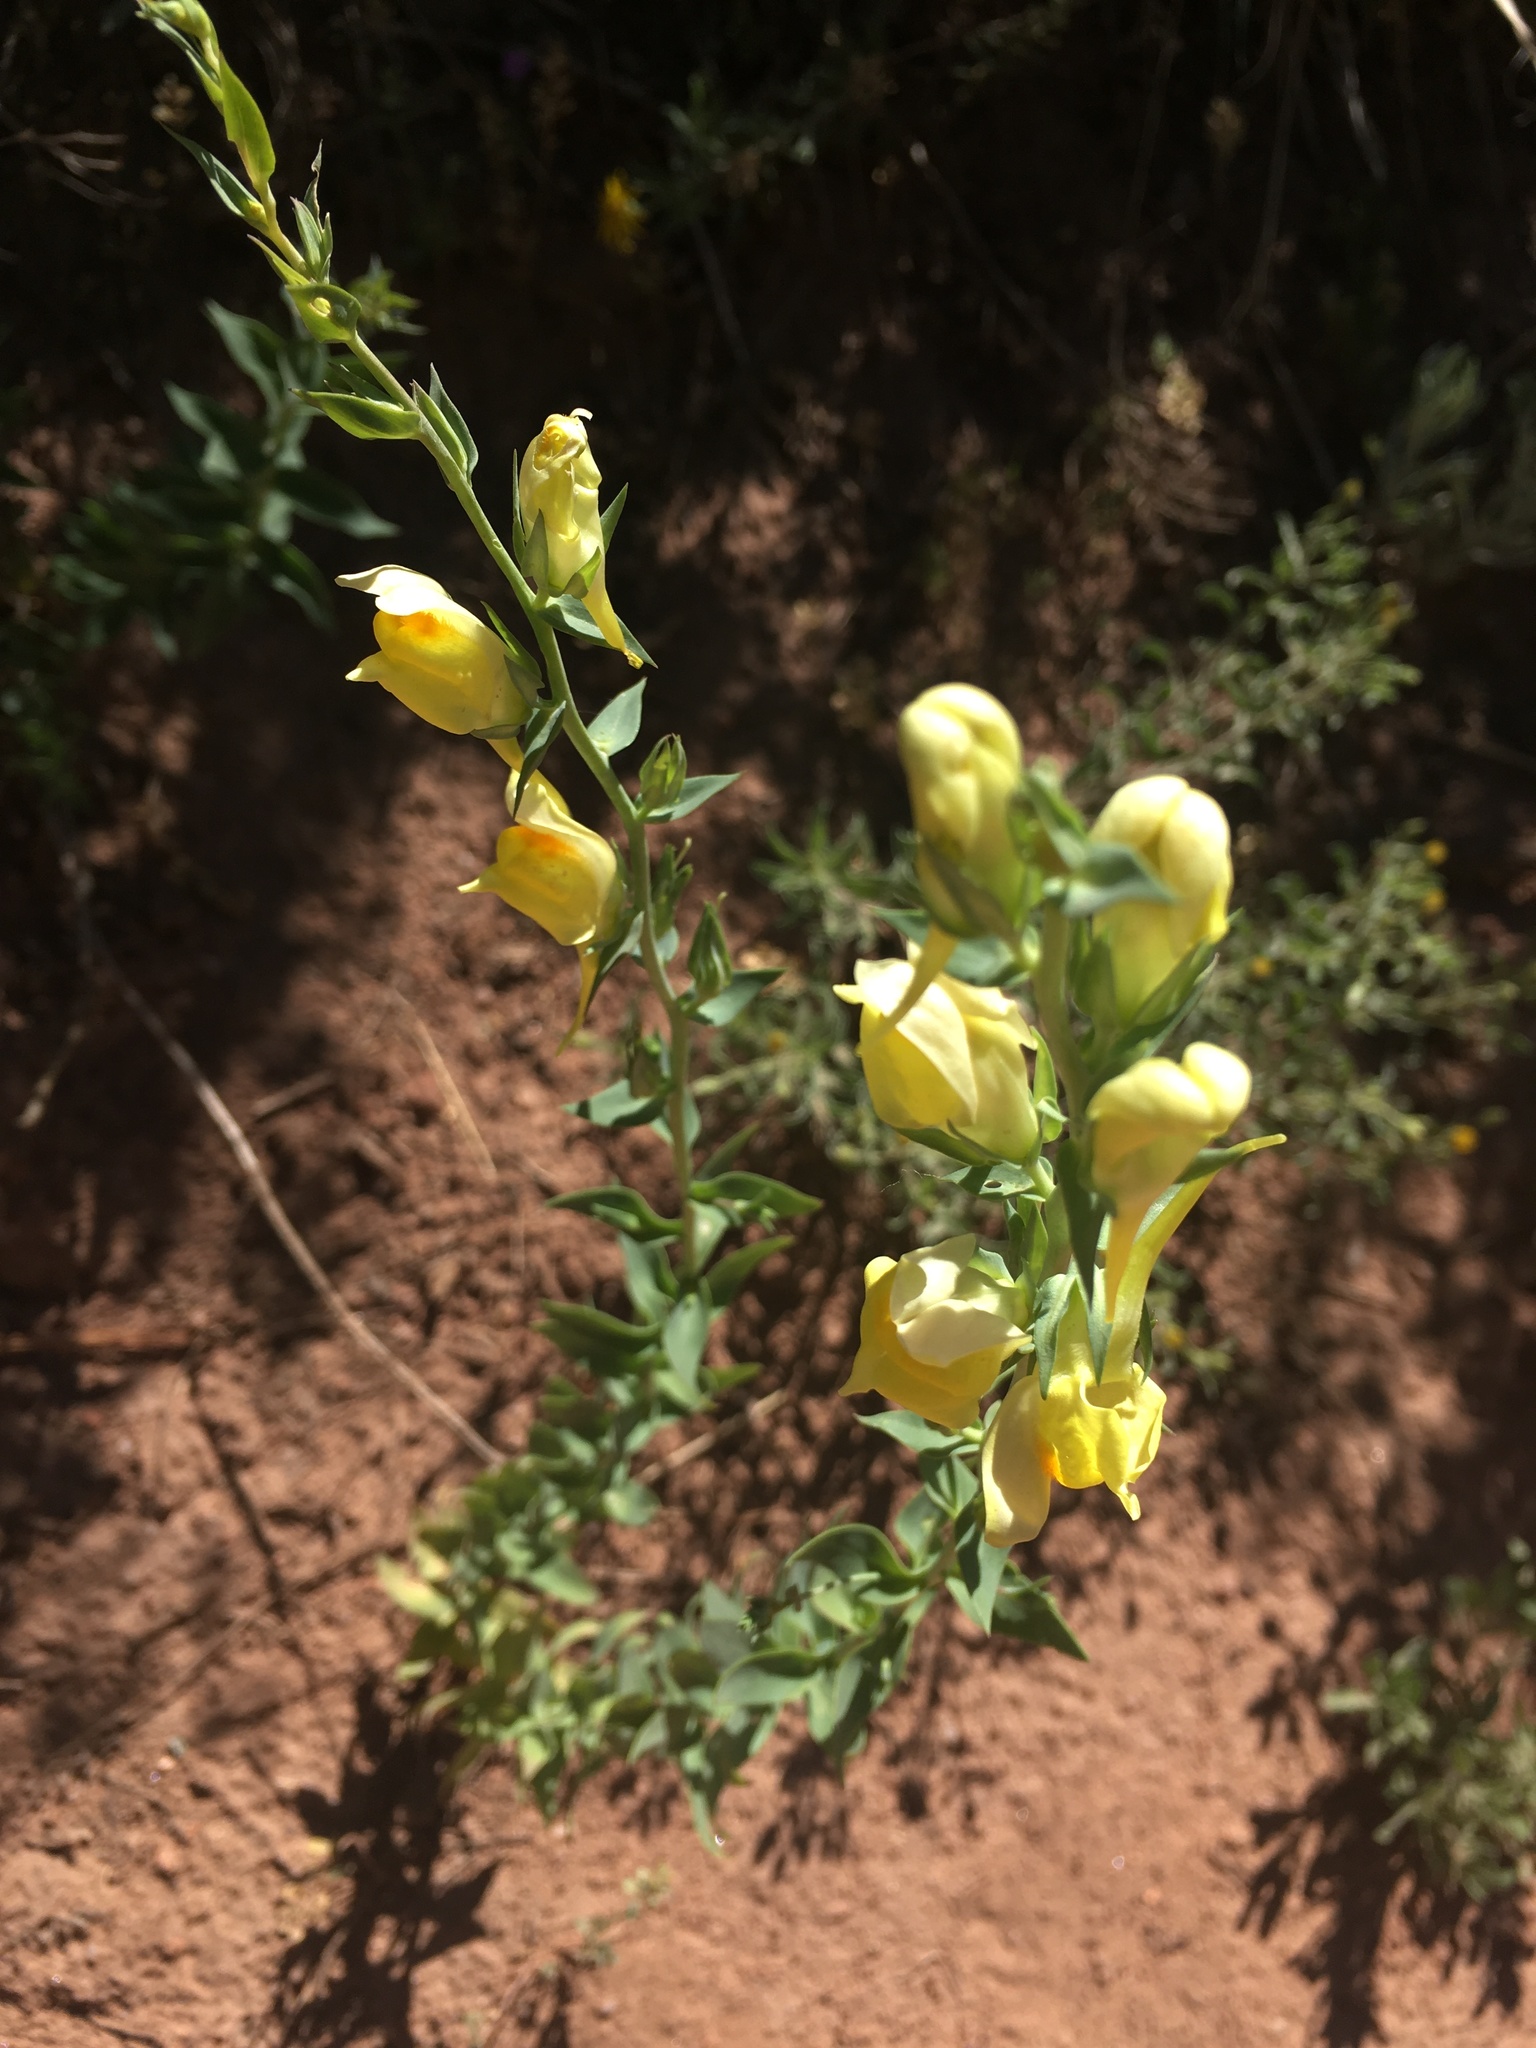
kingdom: Plantae
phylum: Tracheophyta
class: Magnoliopsida
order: Lamiales
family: Plantaginaceae
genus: Linaria
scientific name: Linaria dalmatica
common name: Dalmatian toadflax
